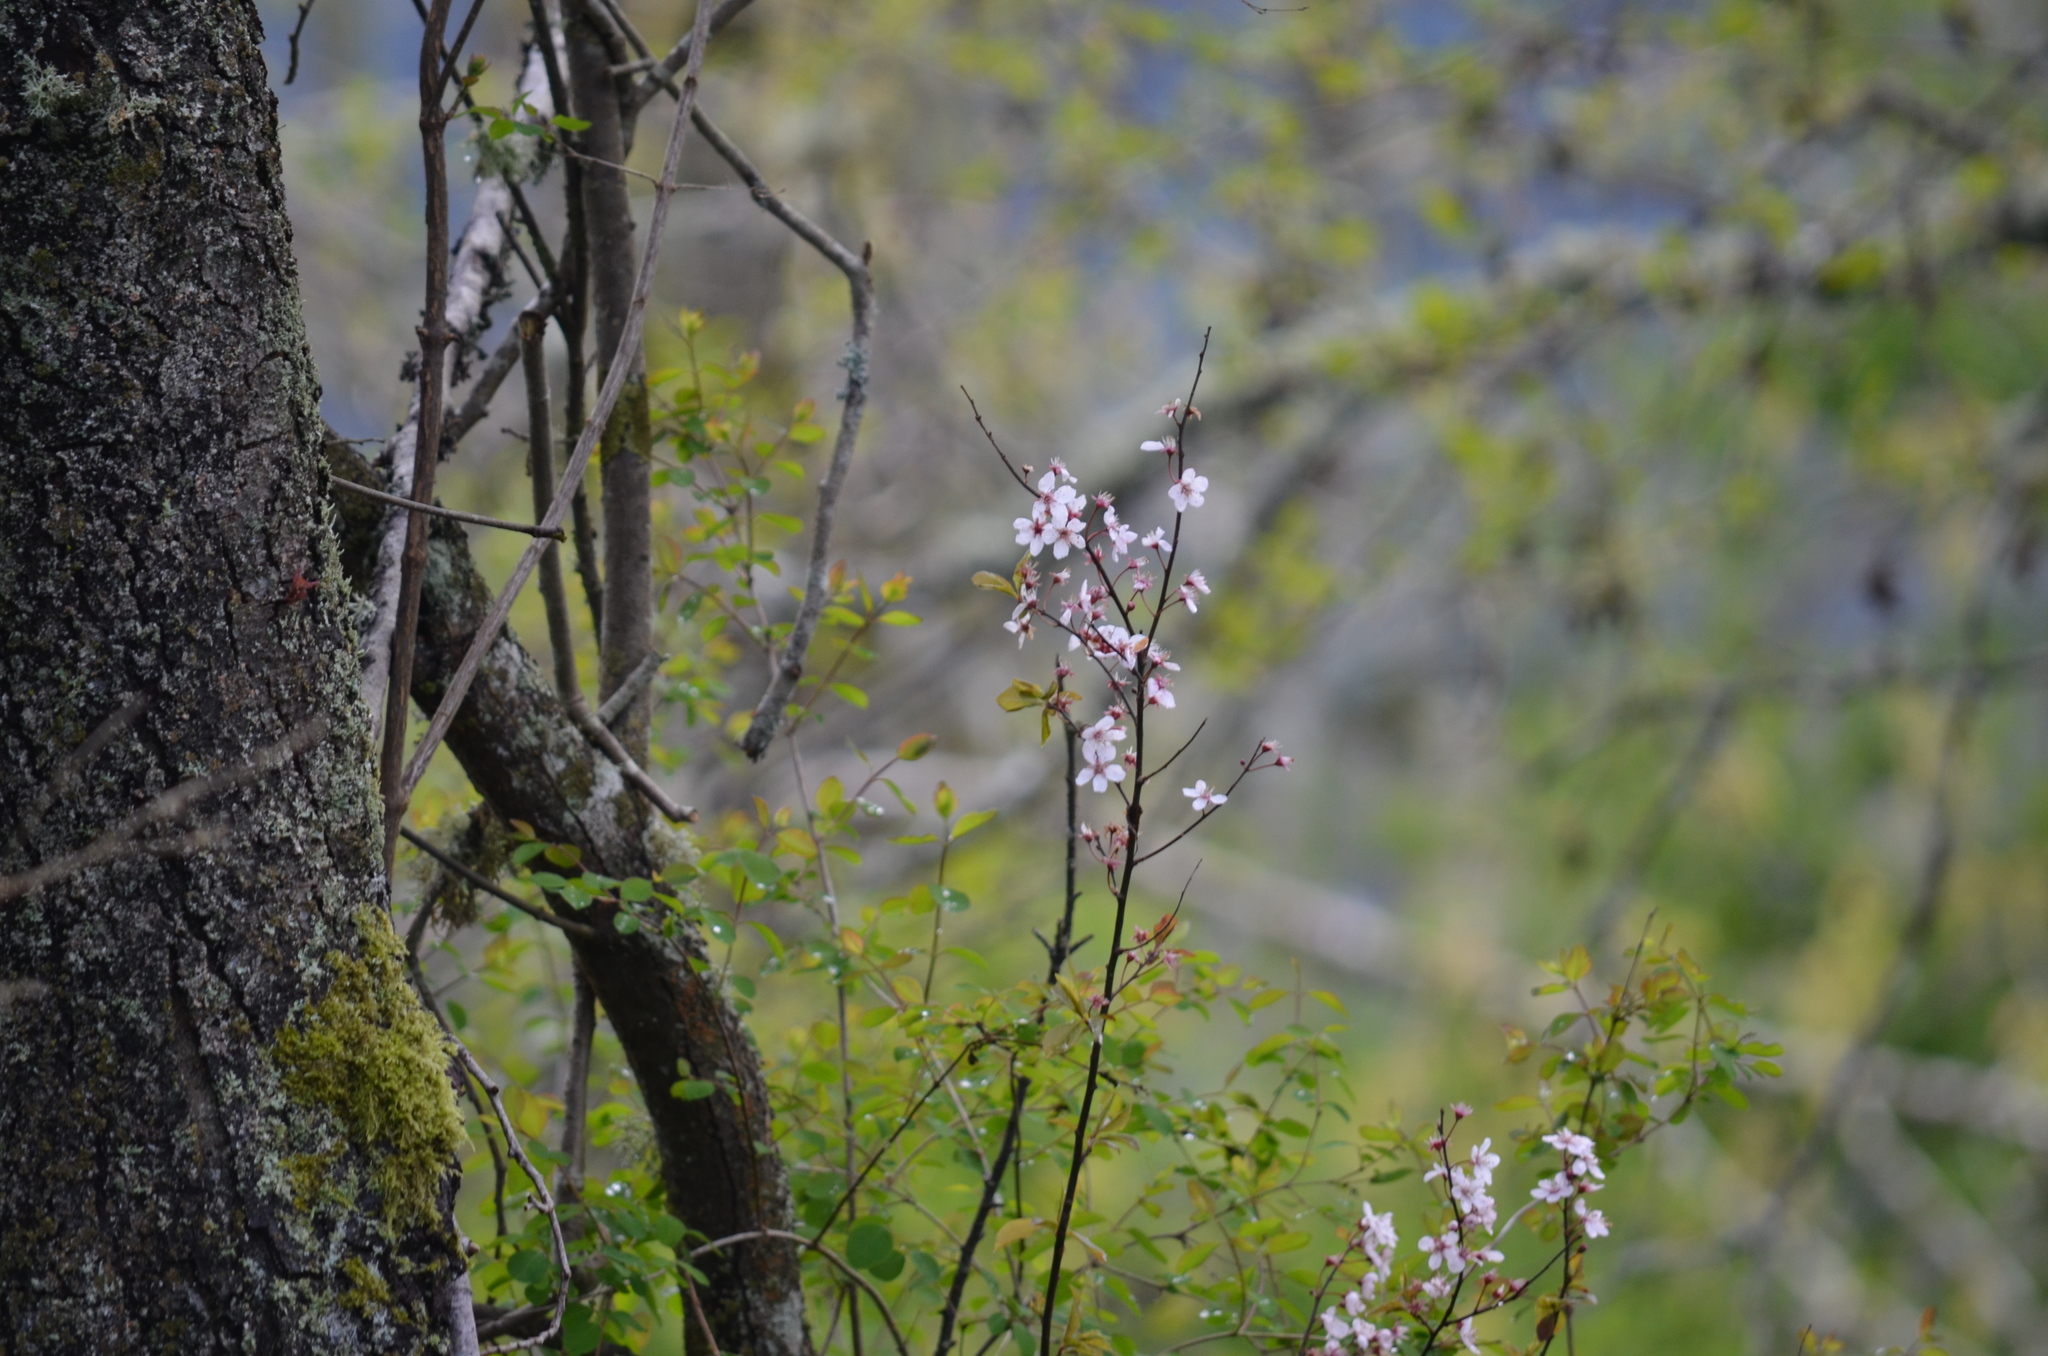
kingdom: Plantae
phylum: Tracheophyta
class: Magnoliopsida
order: Rosales
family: Rosaceae
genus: Prunus
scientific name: Prunus cerasifera
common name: Cherry plum
